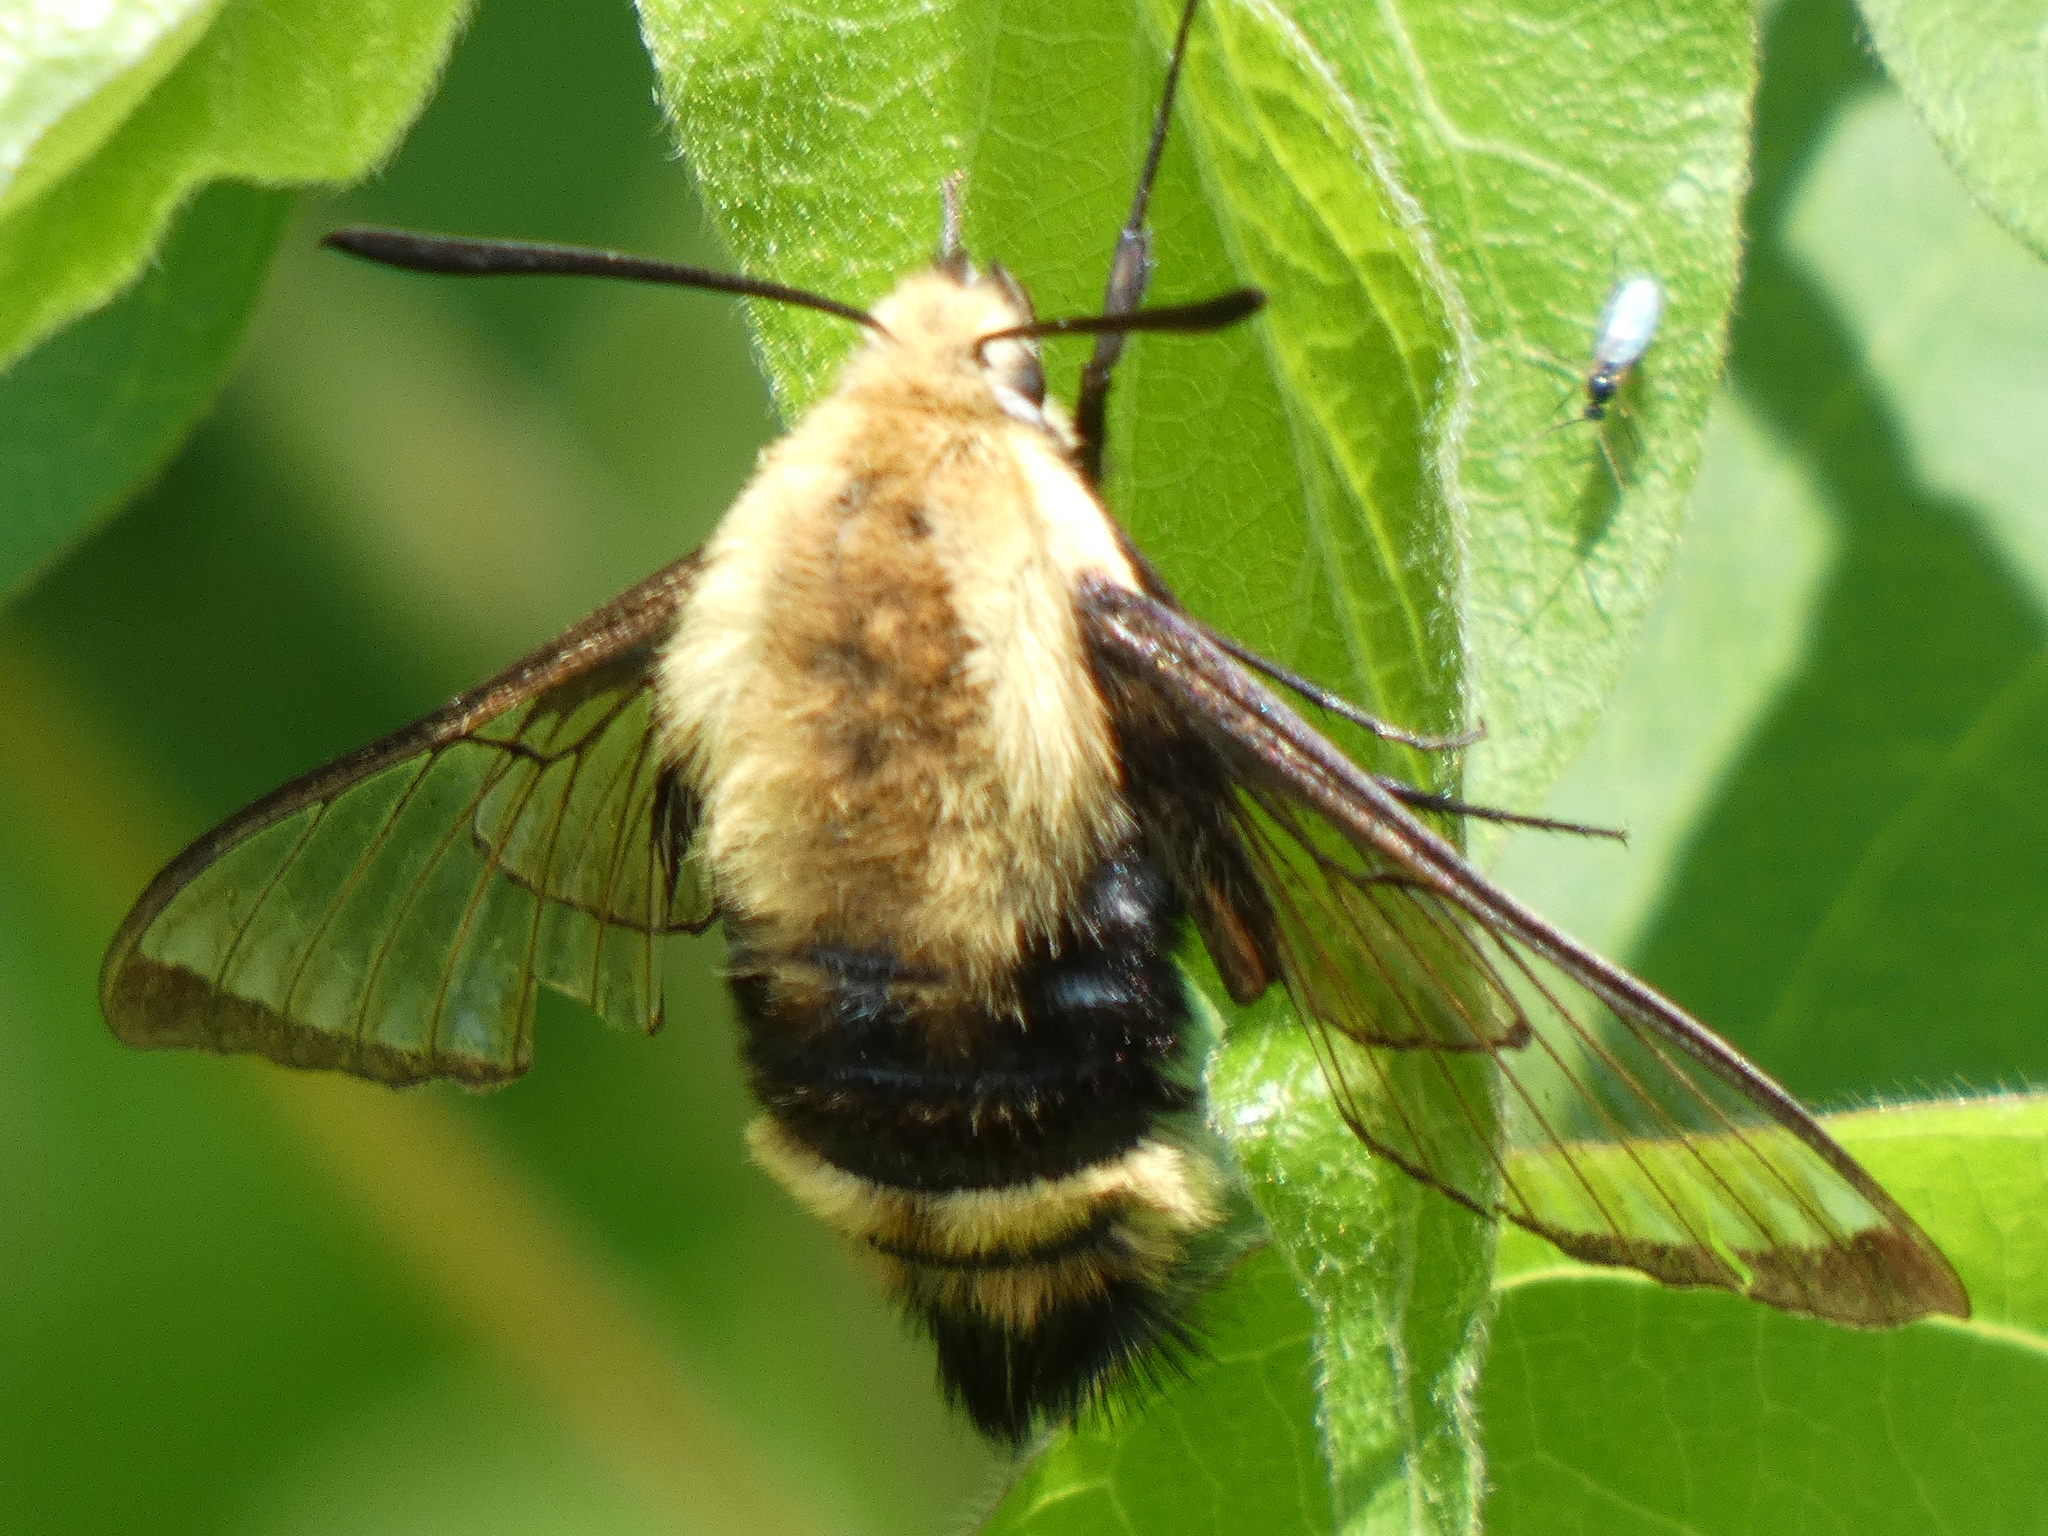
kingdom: Animalia
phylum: Arthropoda
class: Insecta
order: Lepidoptera
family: Sphingidae
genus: Hemaris
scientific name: Hemaris diffinis
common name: Bumblebee moth
